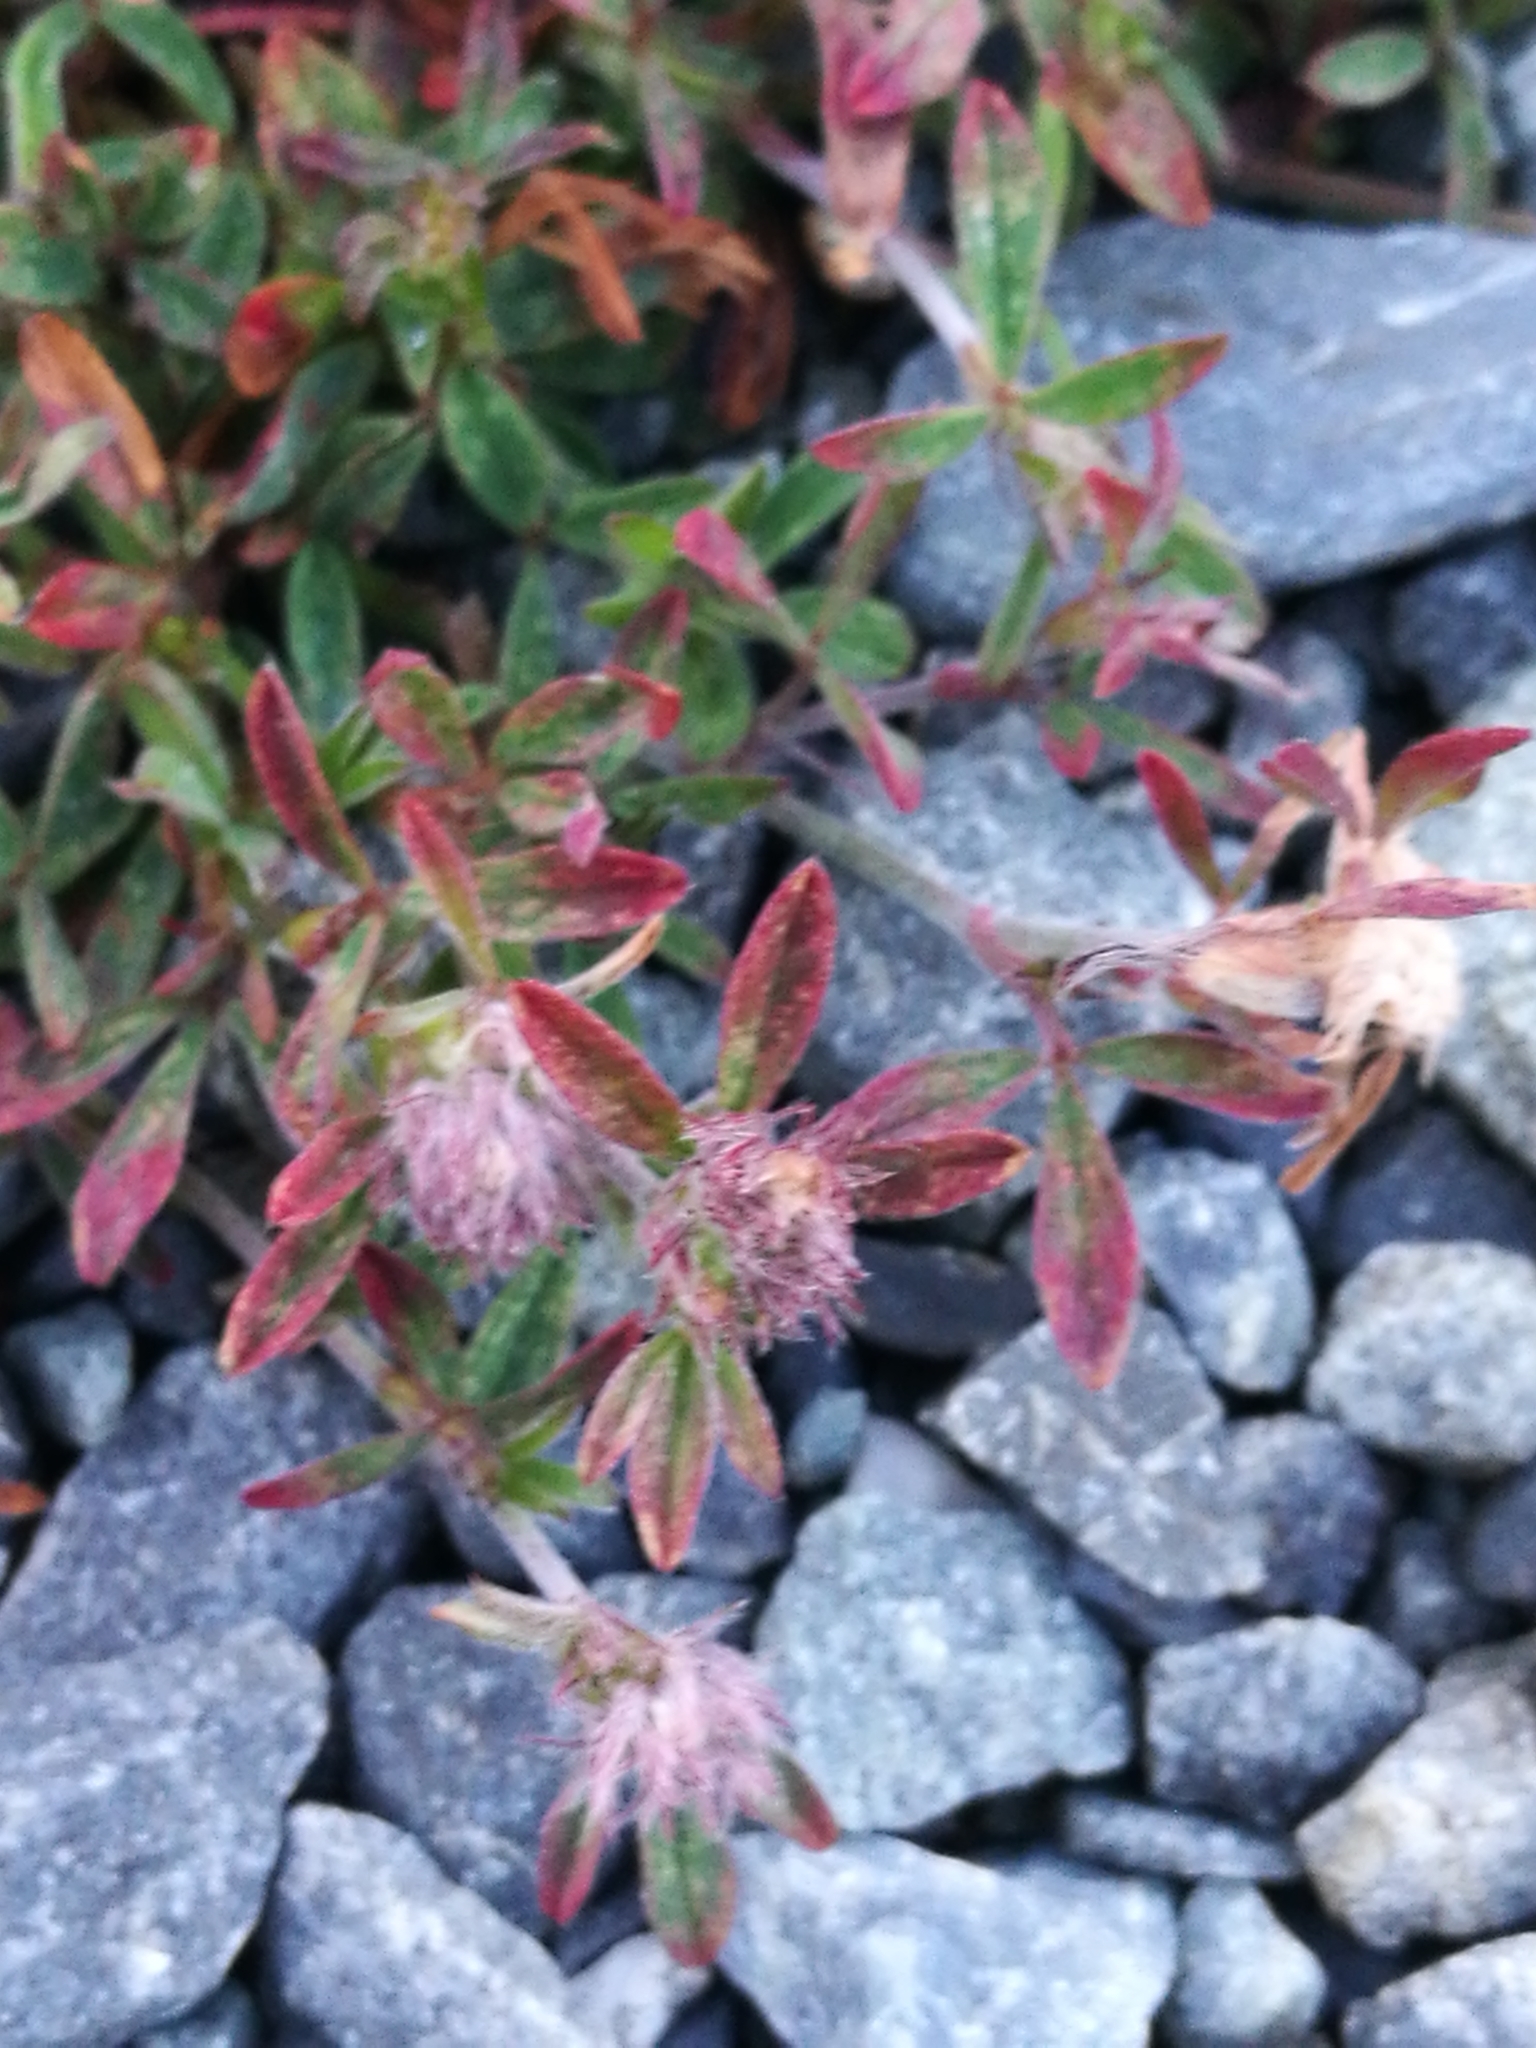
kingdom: Plantae
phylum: Tracheophyta
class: Magnoliopsida
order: Fabales
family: Fabaceae
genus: Trifolium
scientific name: Trifolium arvense
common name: Hare's-foot clover
